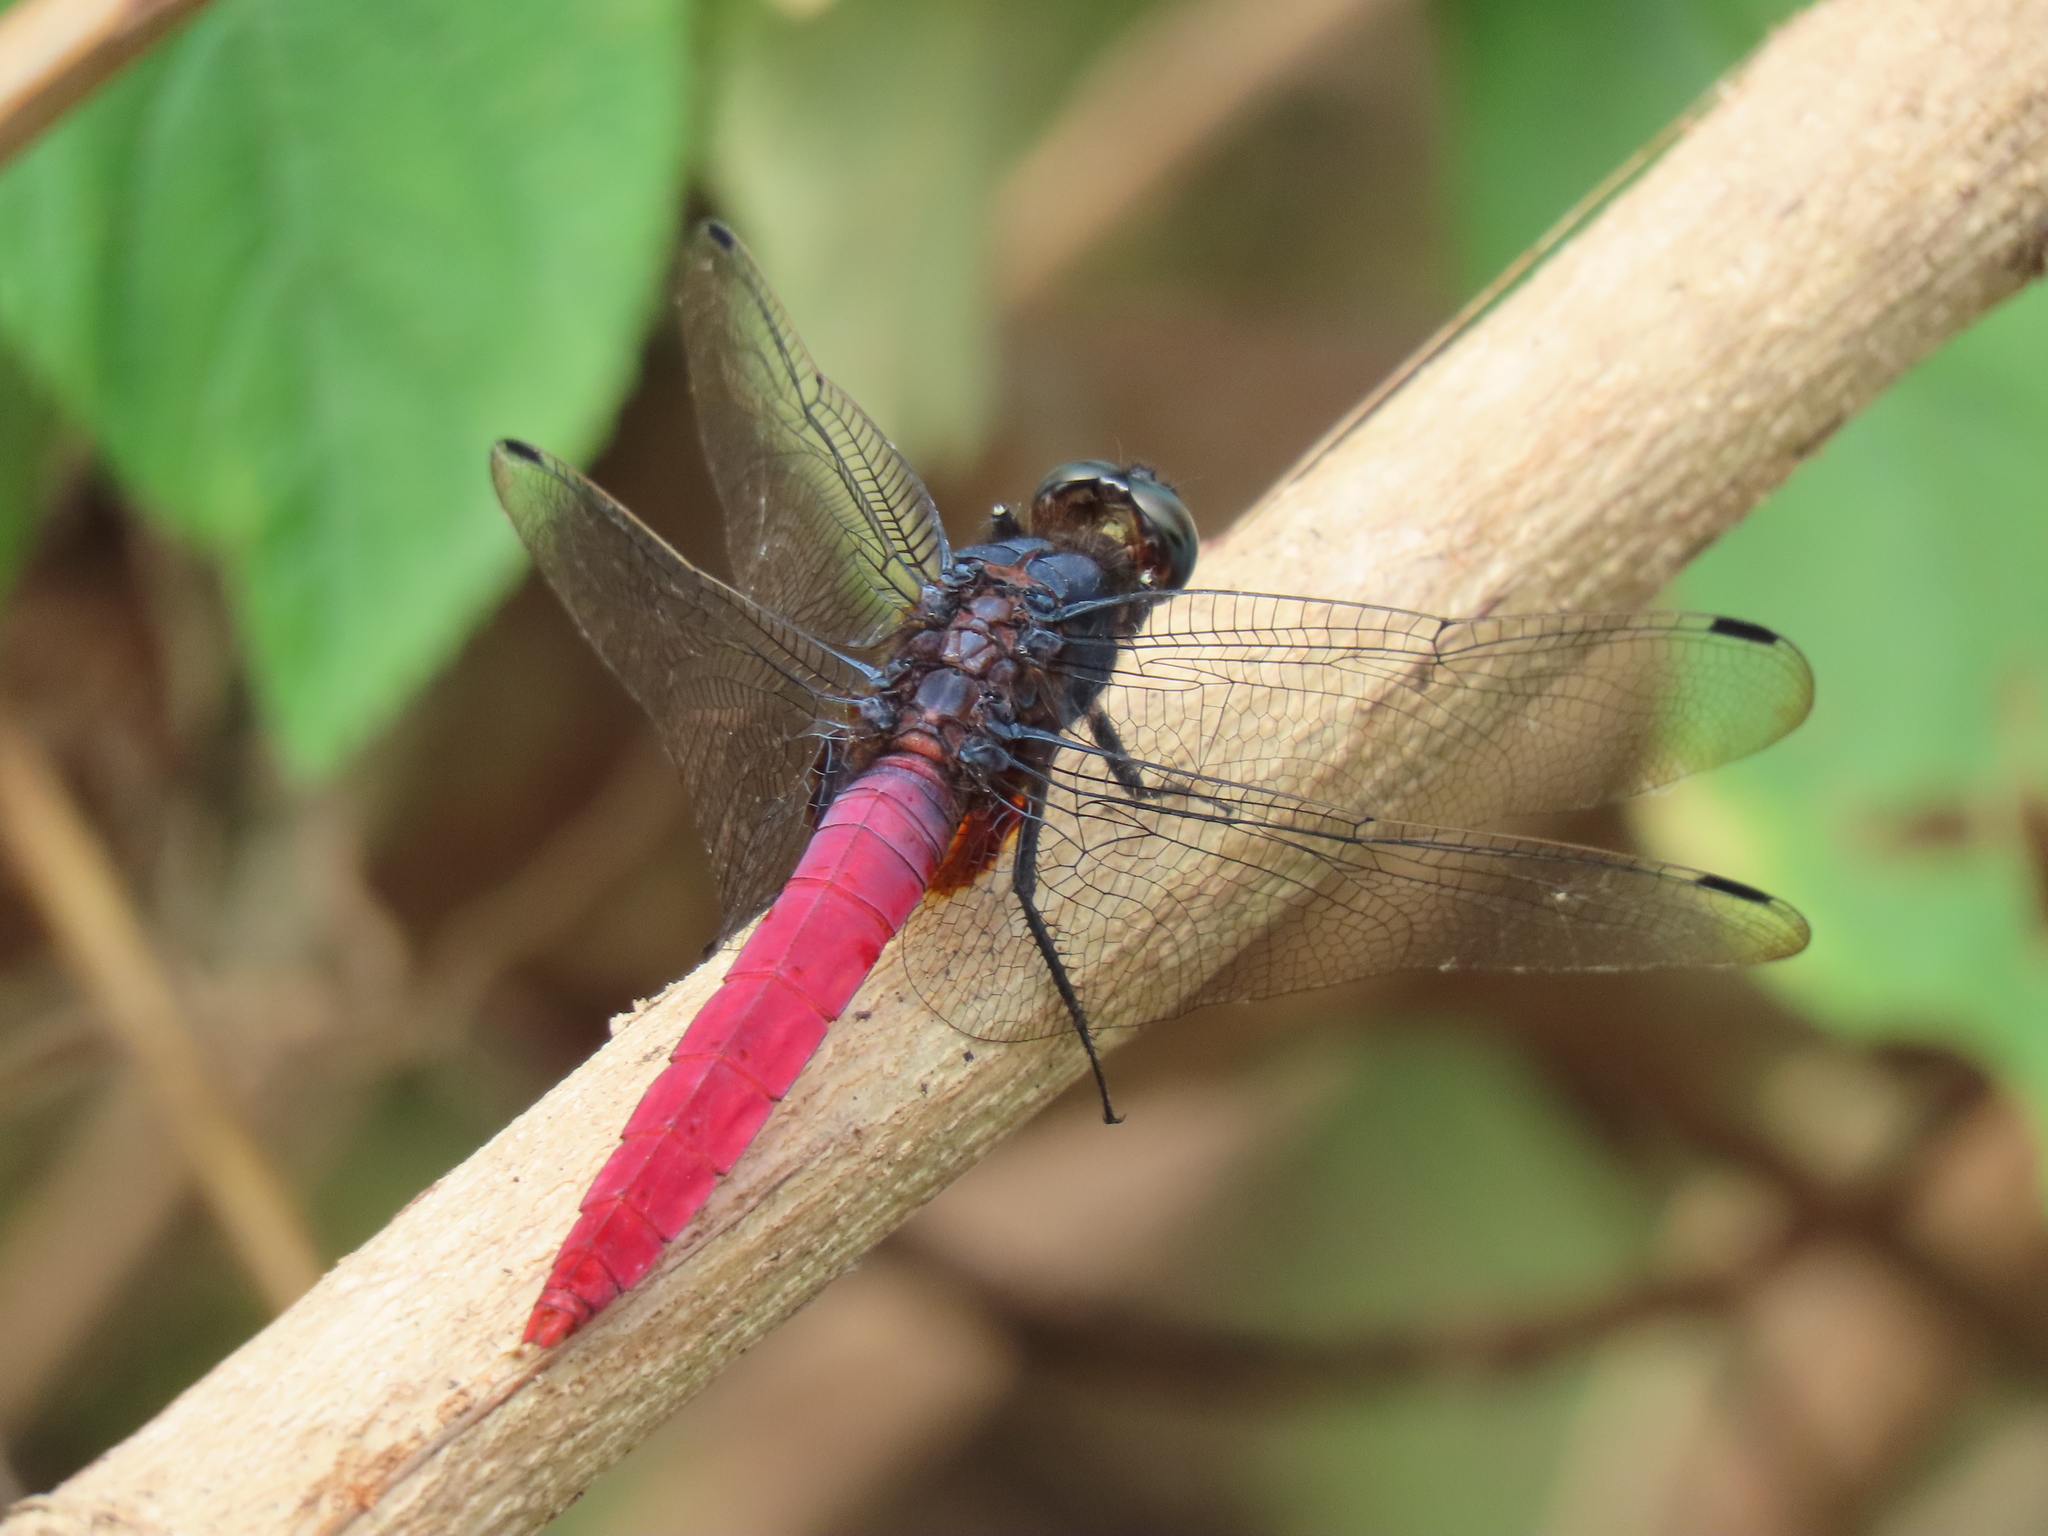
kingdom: Animalia
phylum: Arthropoda
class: Insecta
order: Odonata
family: Libellulidae
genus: Orthetrum
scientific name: Orthetrum pruinosum
